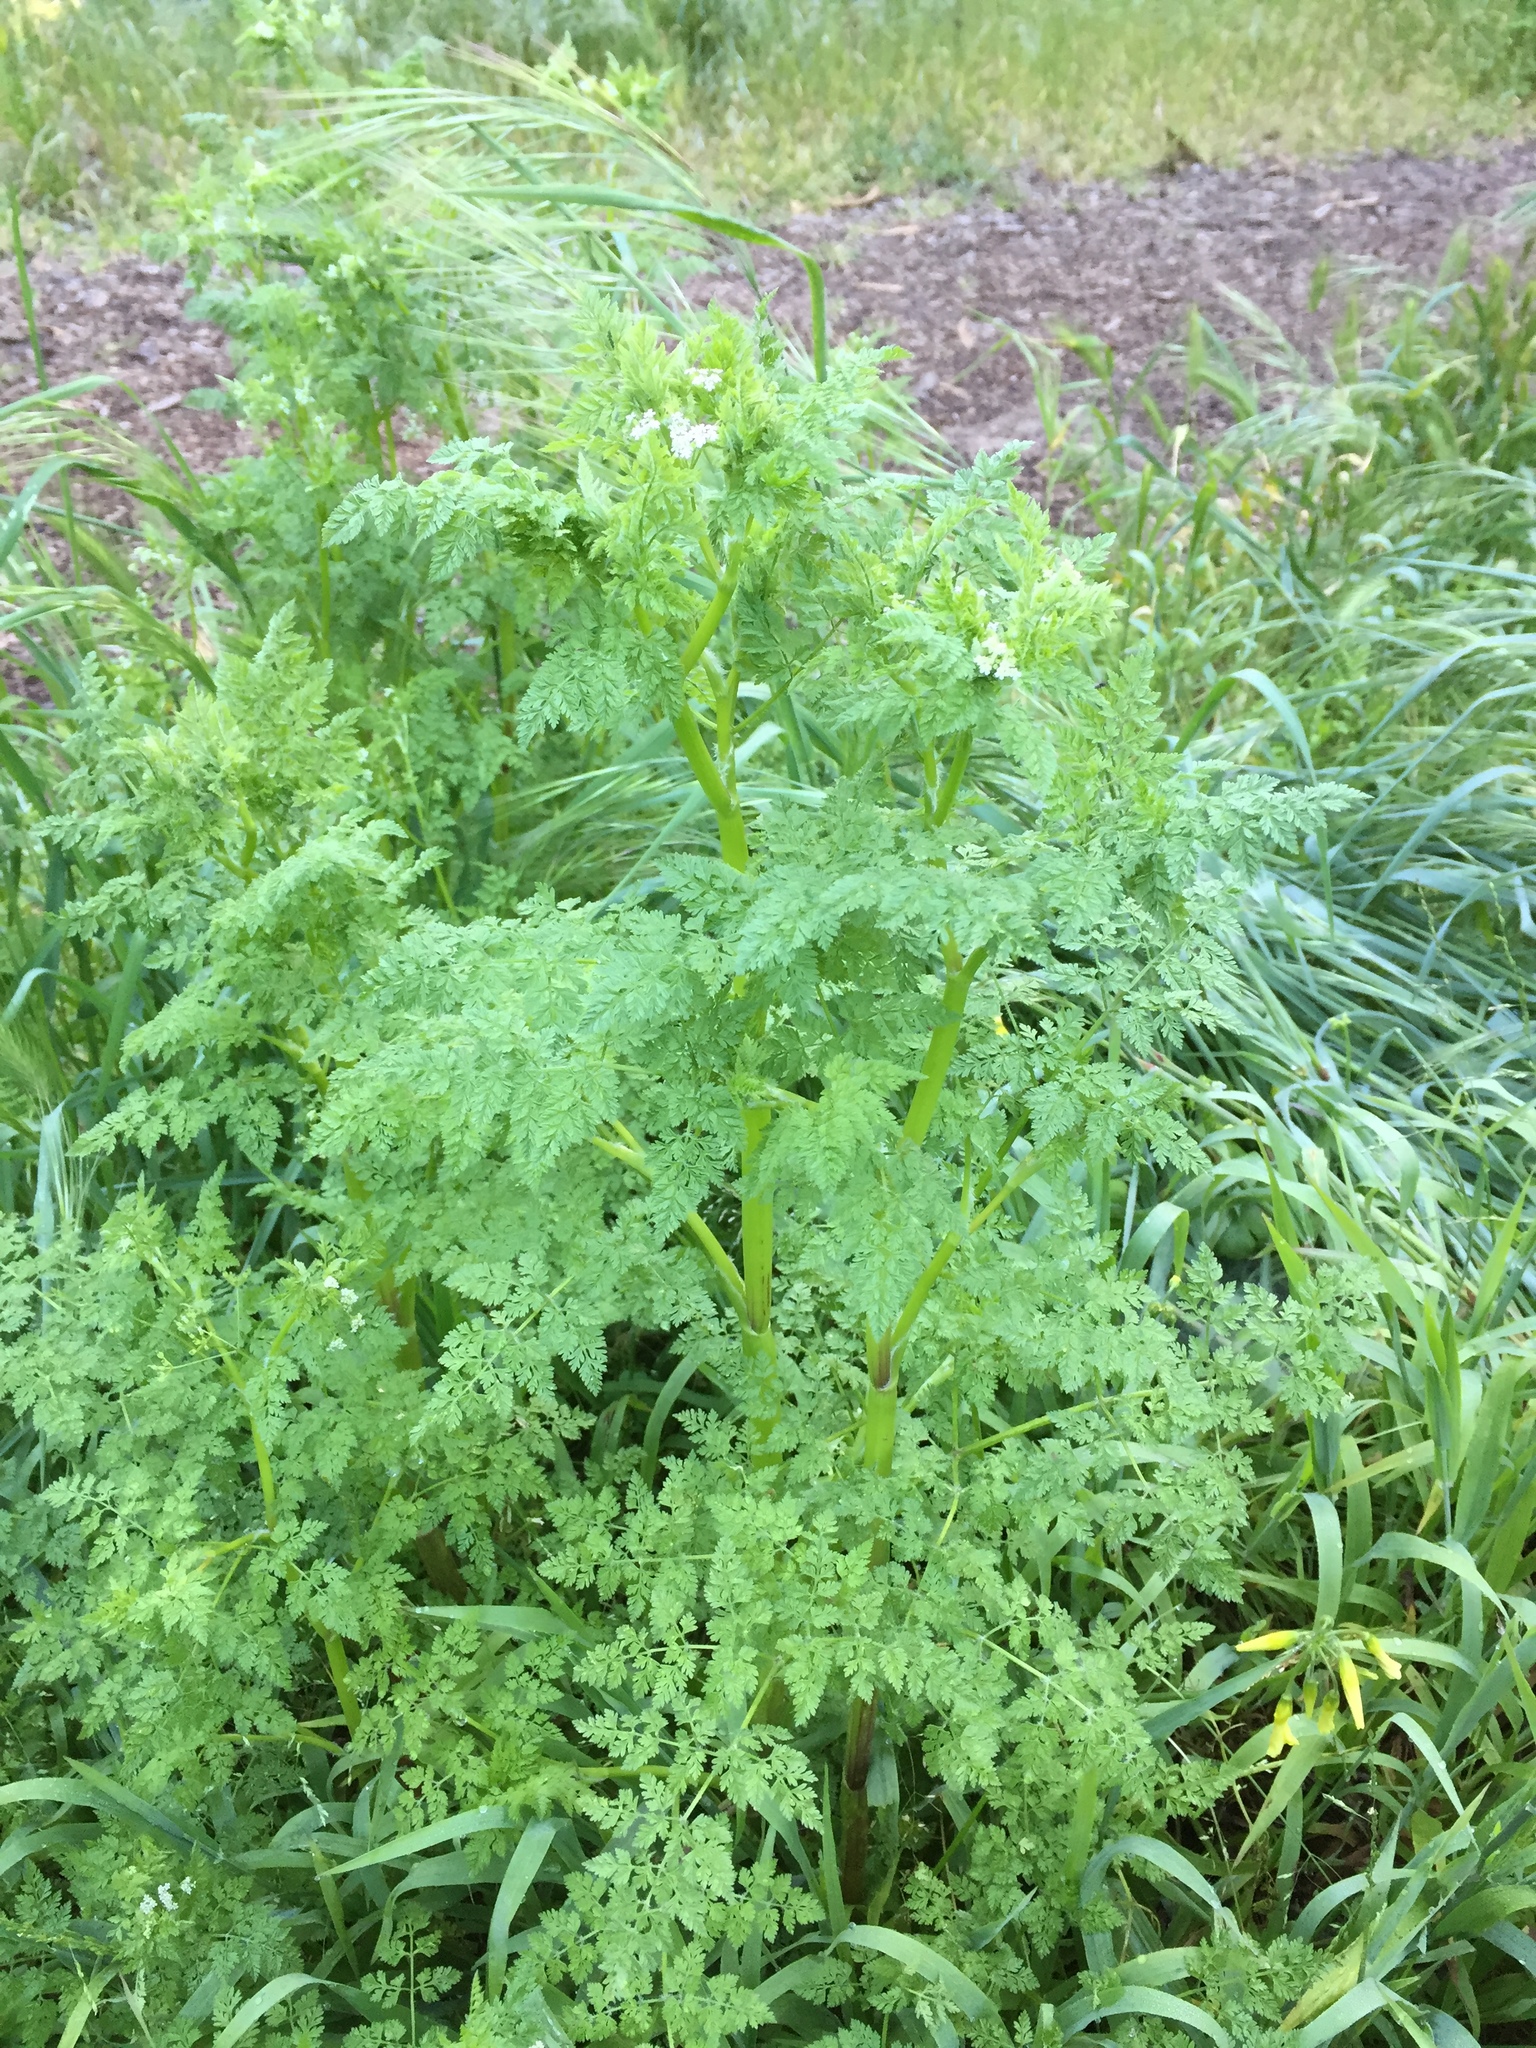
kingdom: Plantae
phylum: Tracheophyta
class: Magnoliopsida
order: Apiales
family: Apiaceae
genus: Anthriscus
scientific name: Anthriscus caucalis
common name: Bur chervil
